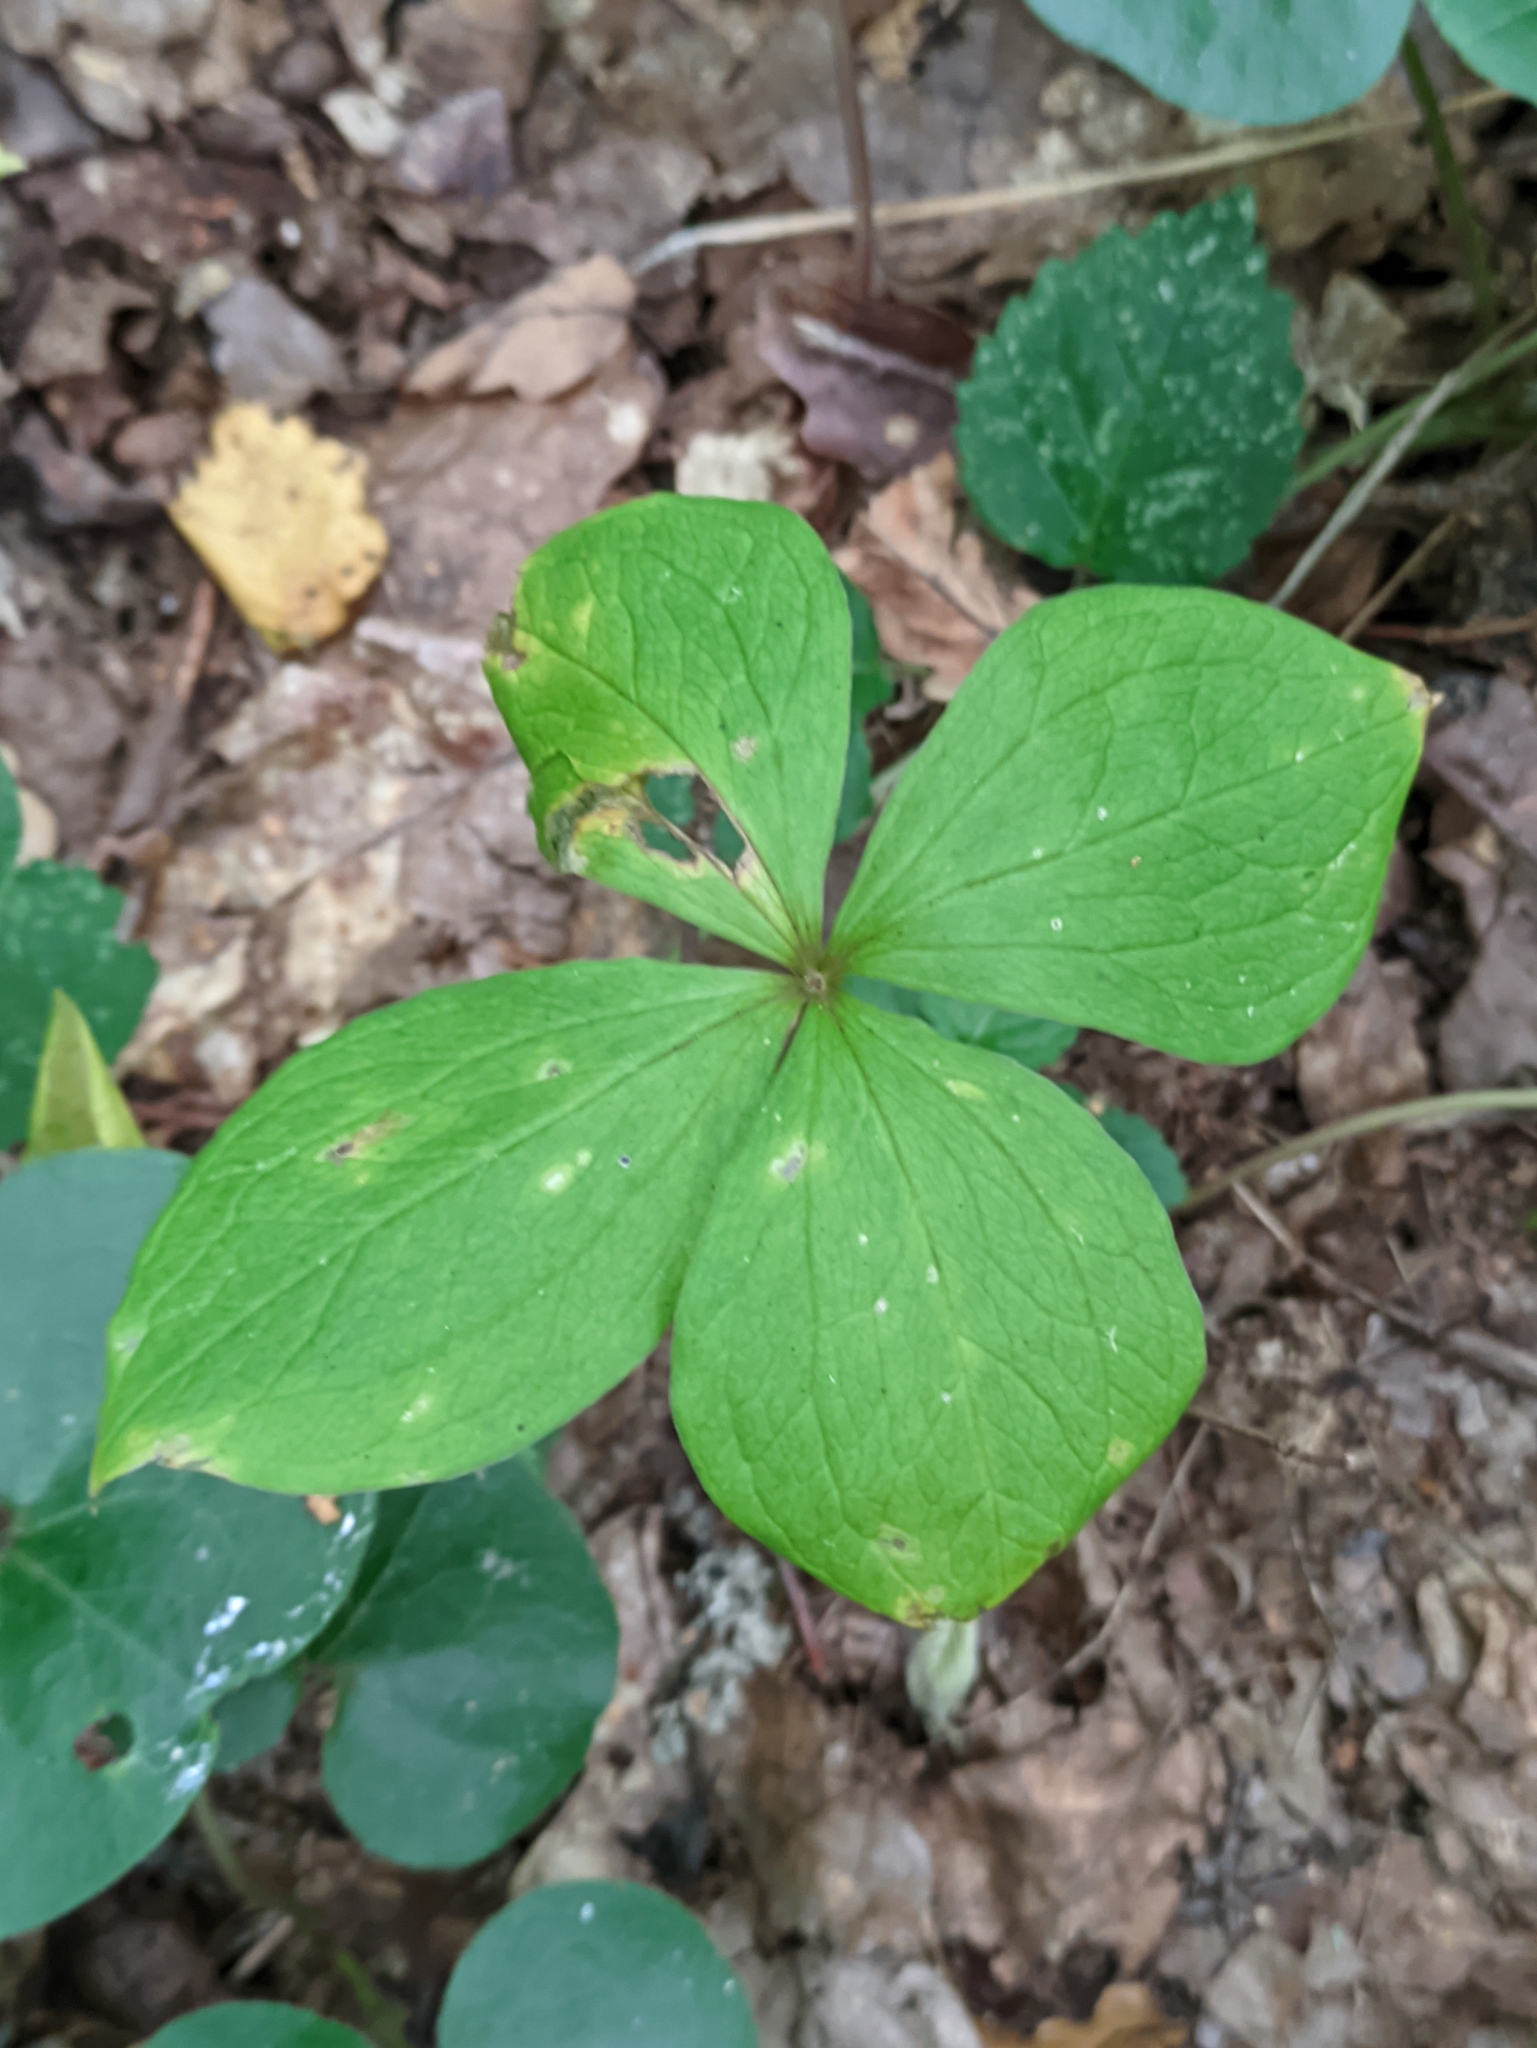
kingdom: Plantae
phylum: Tracheophyta
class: Liliopsida
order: Liliales
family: Melanthiaceae
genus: Paris
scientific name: Paris quadrifolia
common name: Herb-paris
